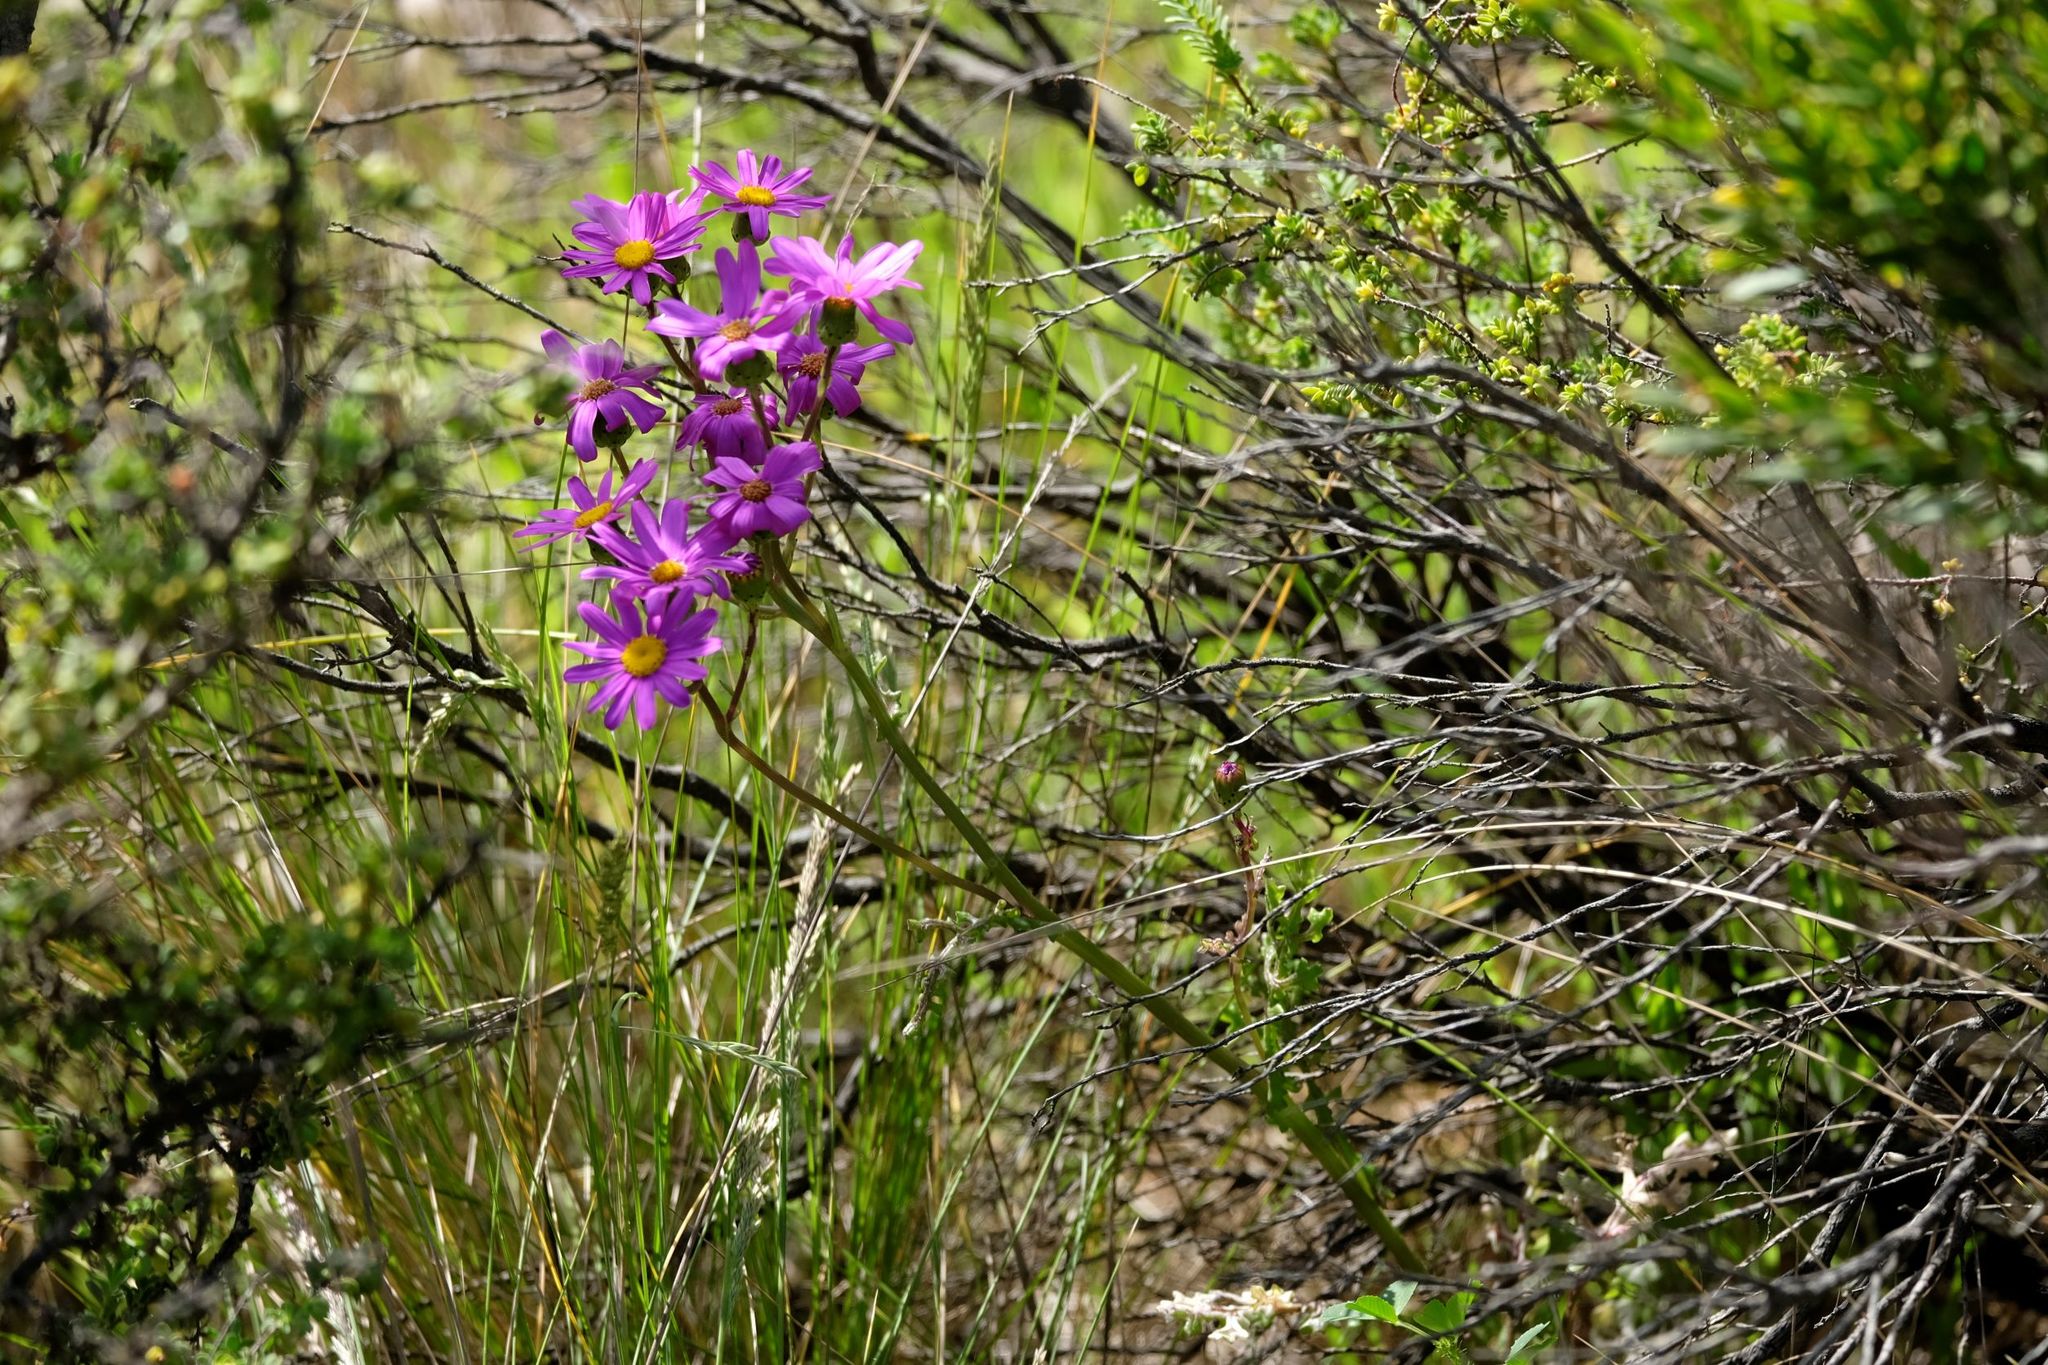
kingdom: Plantae
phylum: Tracheophyta
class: Magnoliopsida
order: Asterales
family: Asteraceae
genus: Senecio
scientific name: Senecio elegans
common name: Purple groundsel
